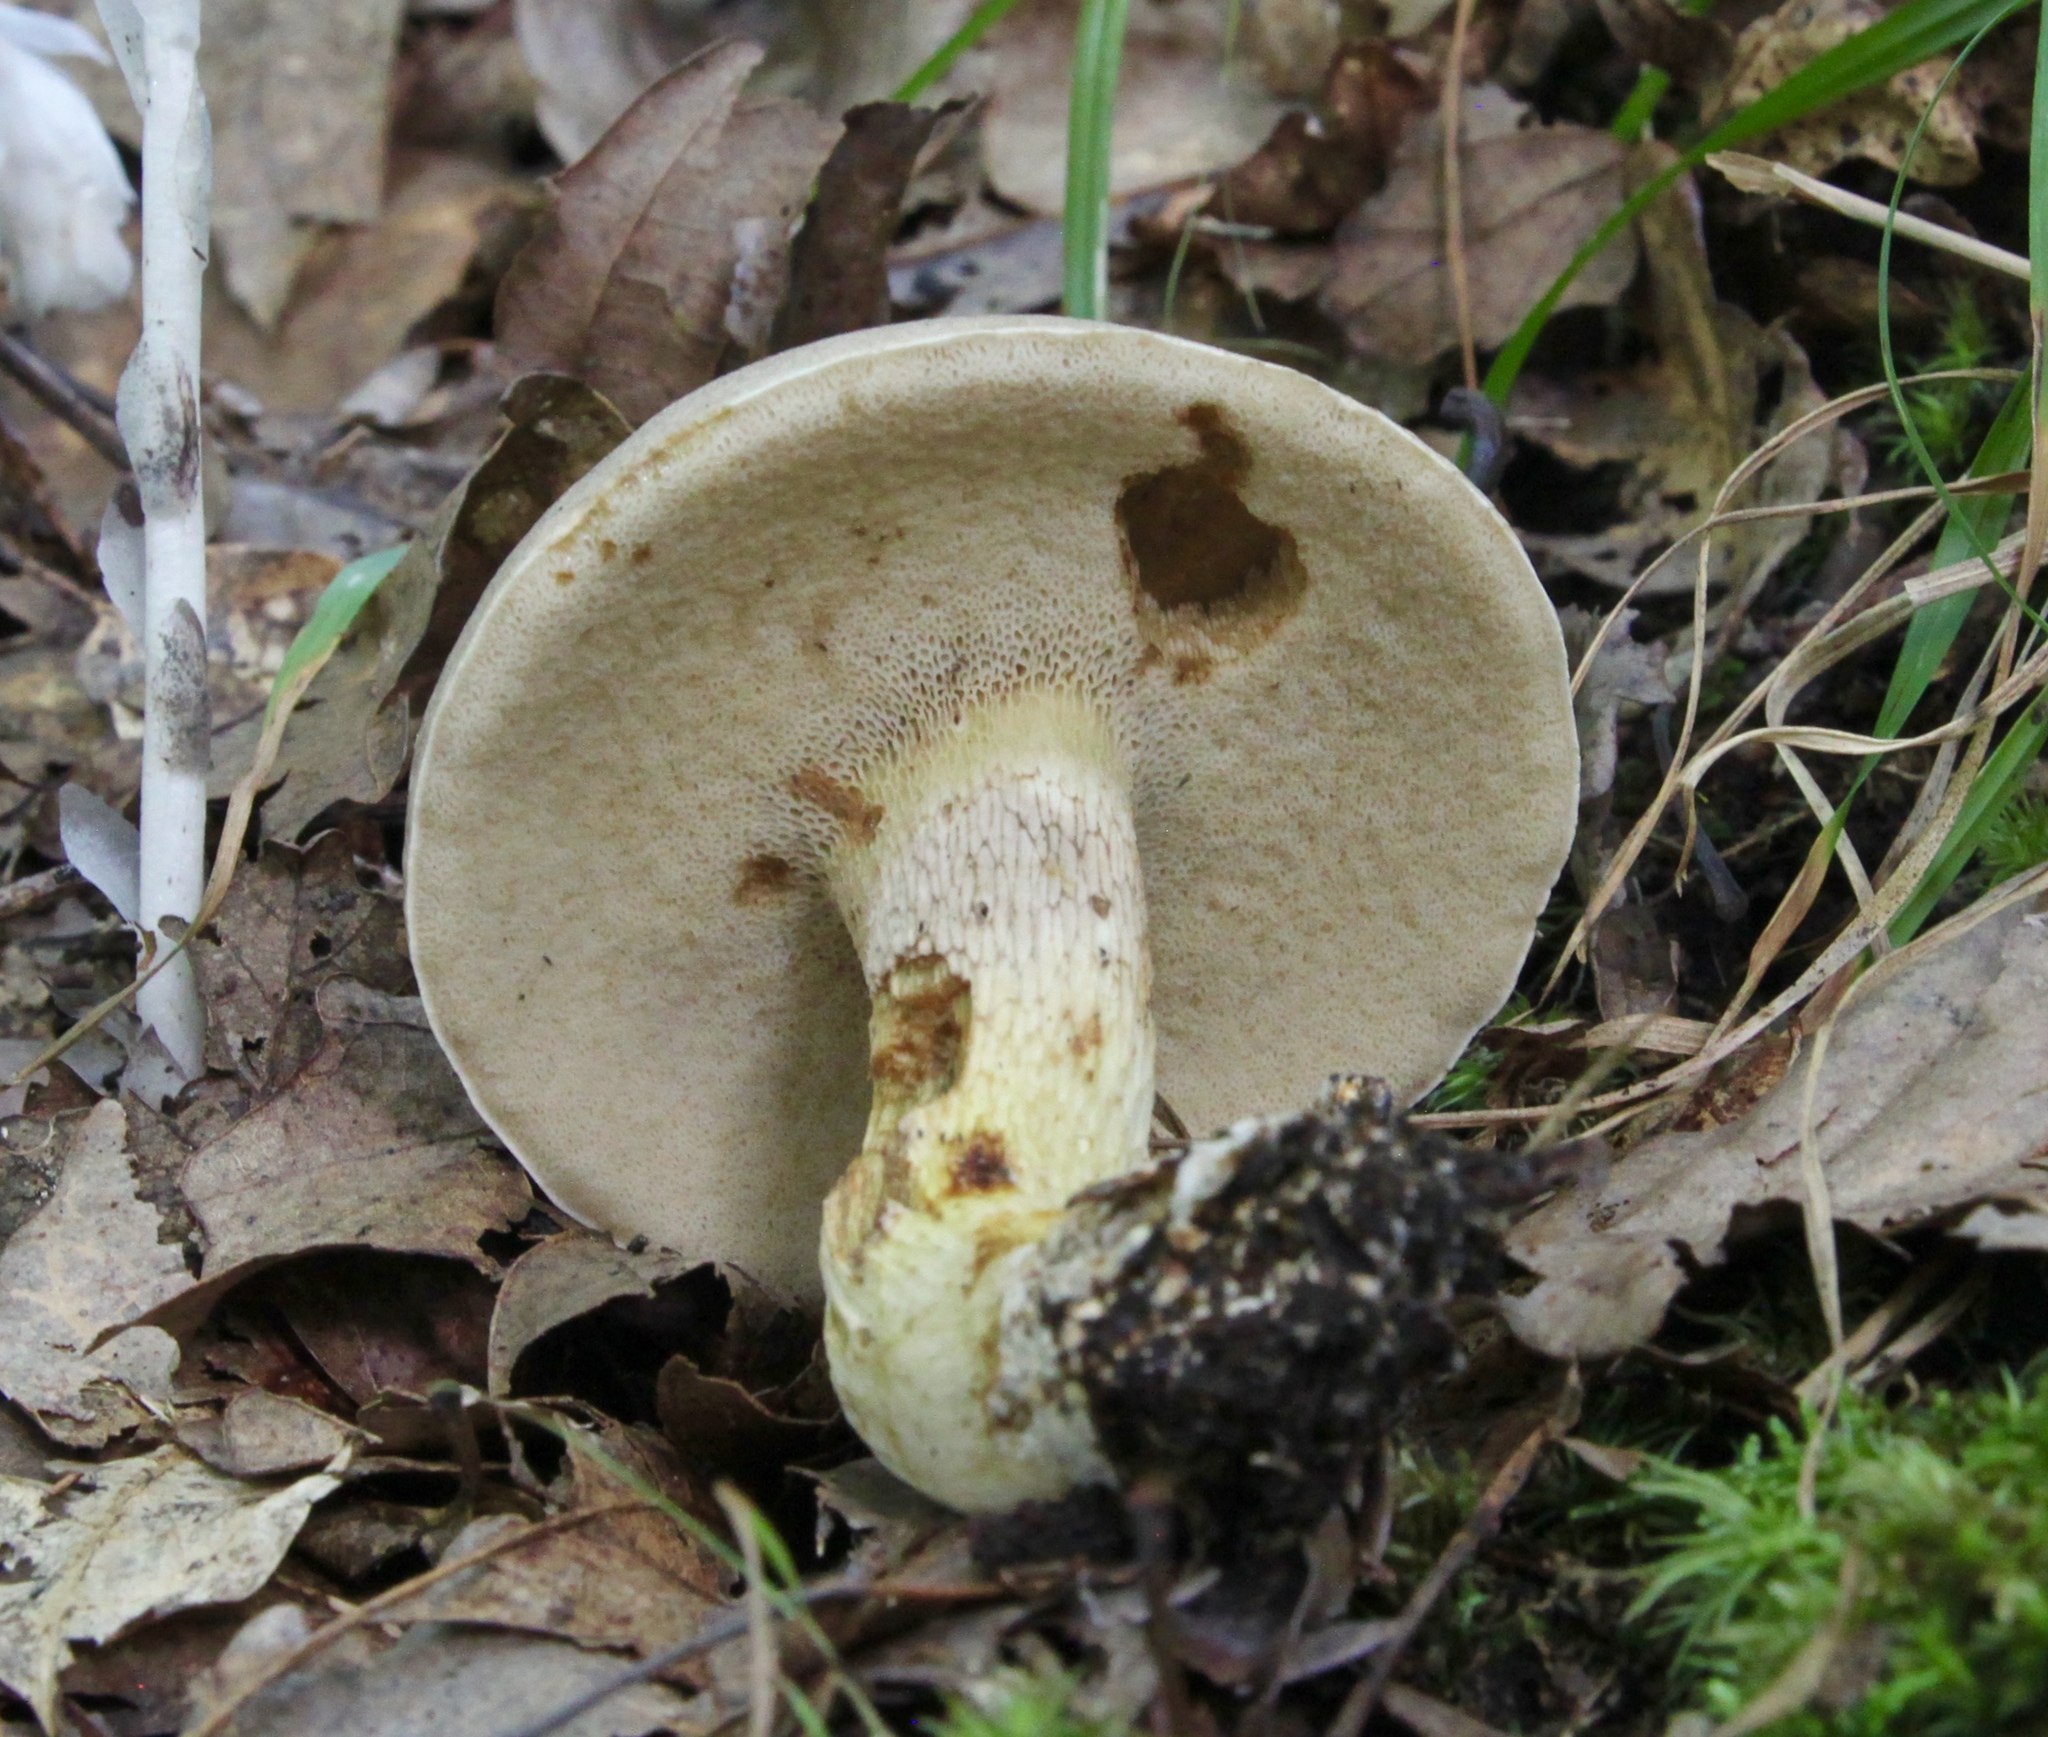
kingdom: Fungi
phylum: Basidiomycota
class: Agaricomycetes
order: Boletales
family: Boletaceae
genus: Retiboletus
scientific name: Retiboletus griseus
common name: Grey bolete
